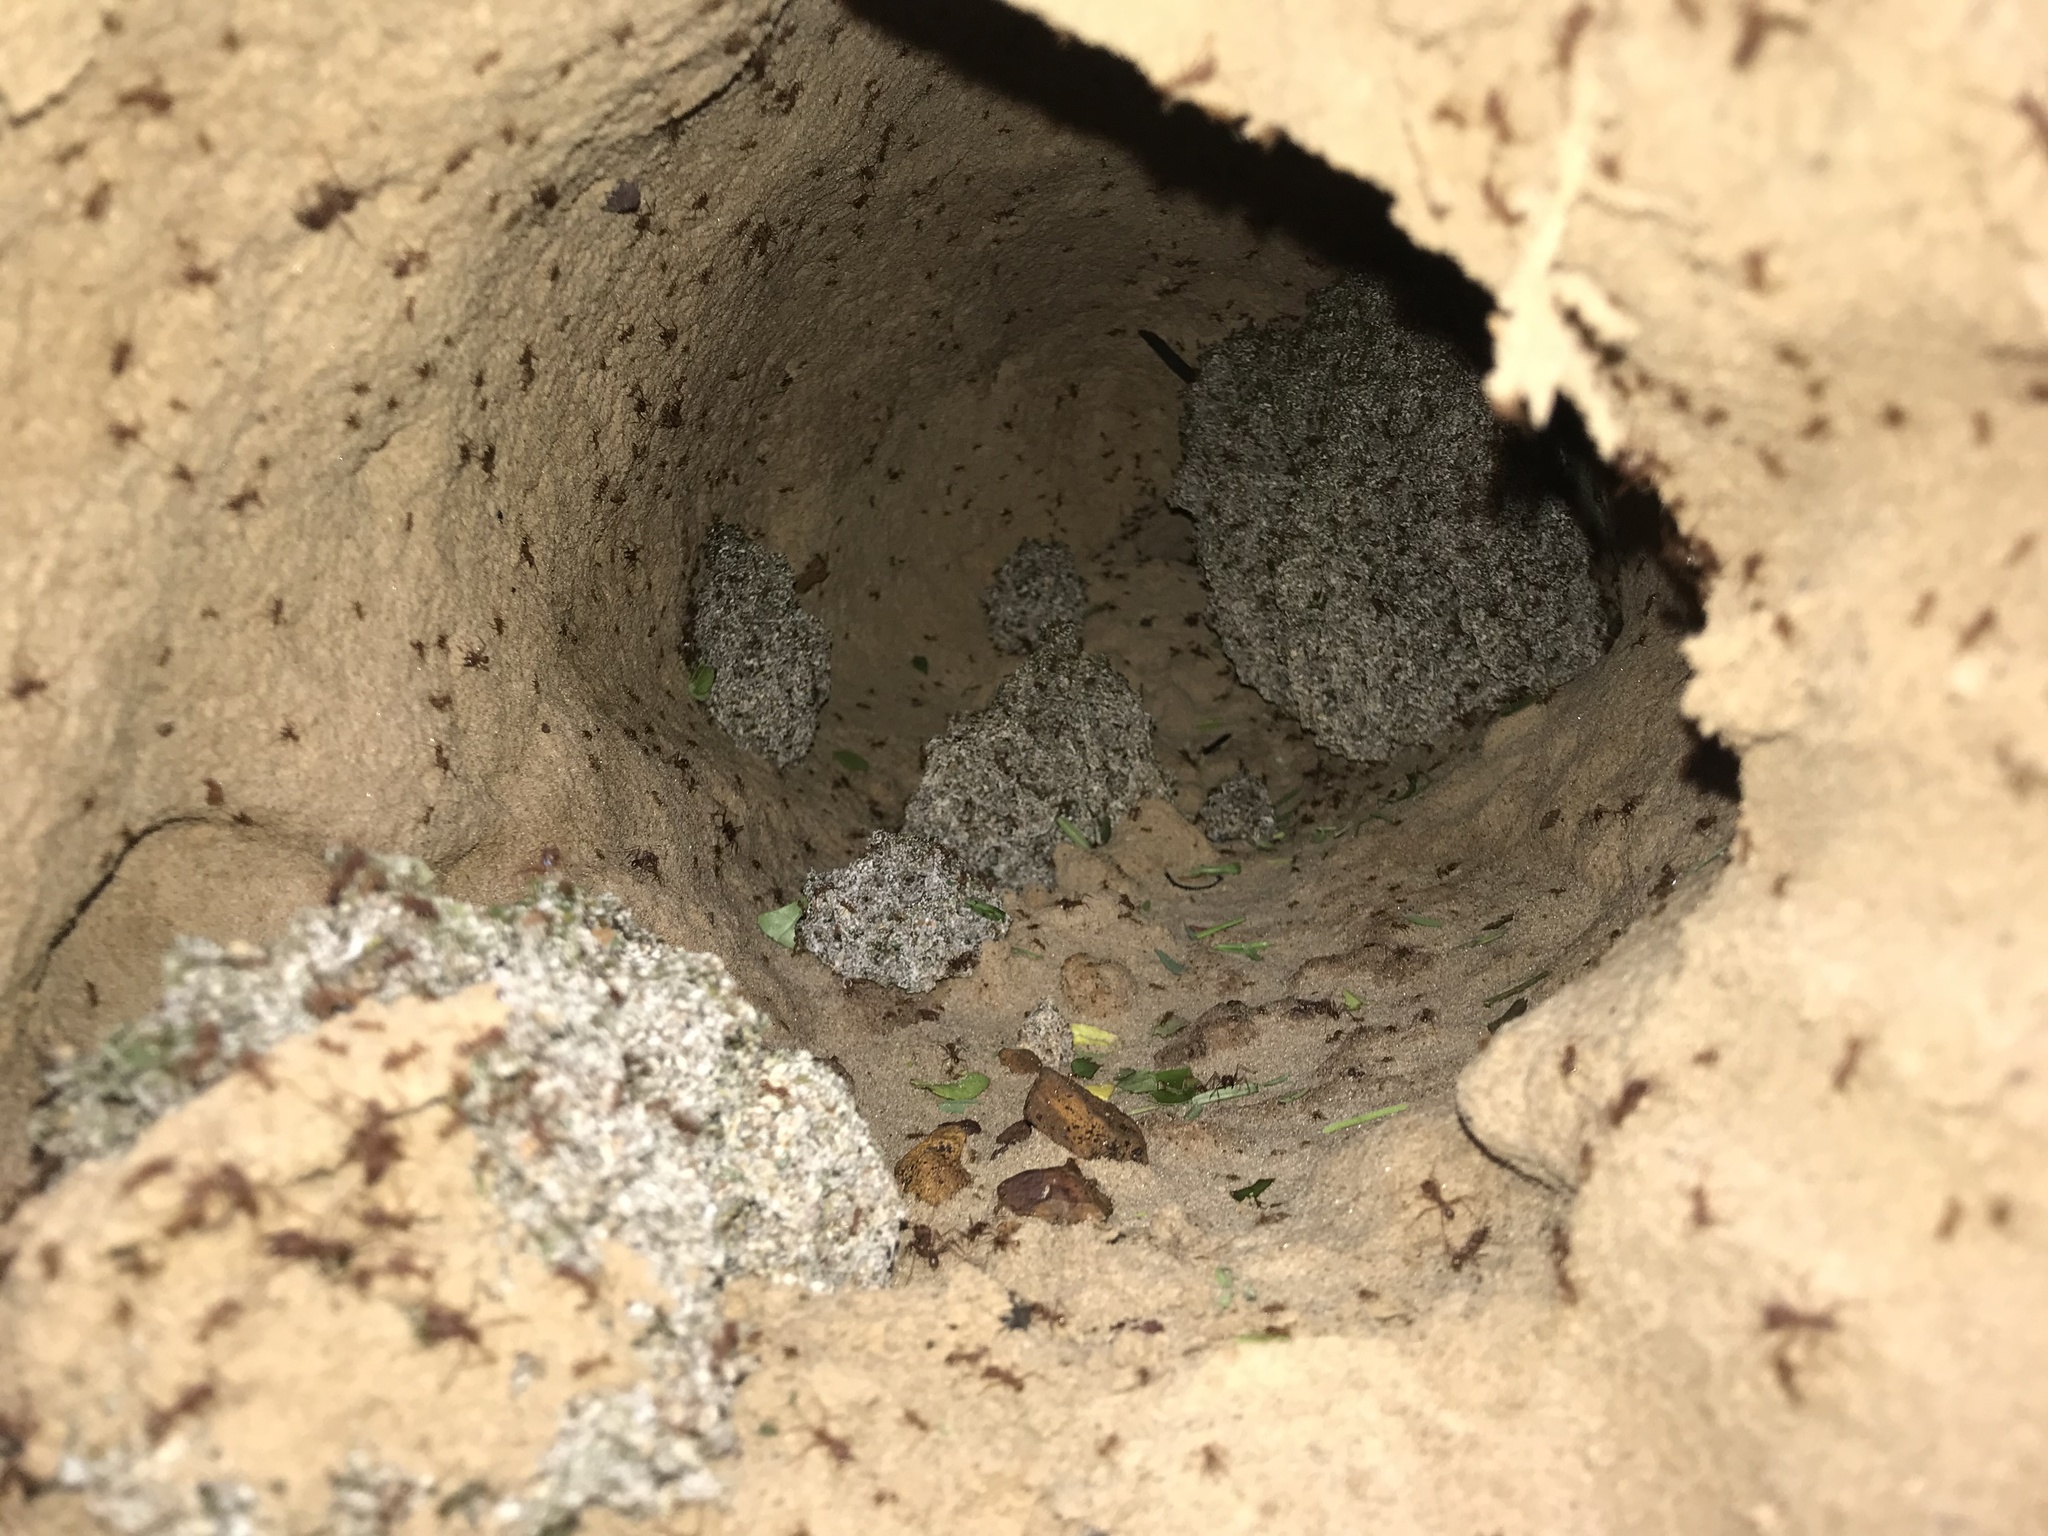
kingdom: Fungi
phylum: Basidiomycota
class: Agaricomycetes
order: Agaricales
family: Agaricaceae
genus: Leucoagaricus
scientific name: Leucoagaricus gongylophorus
